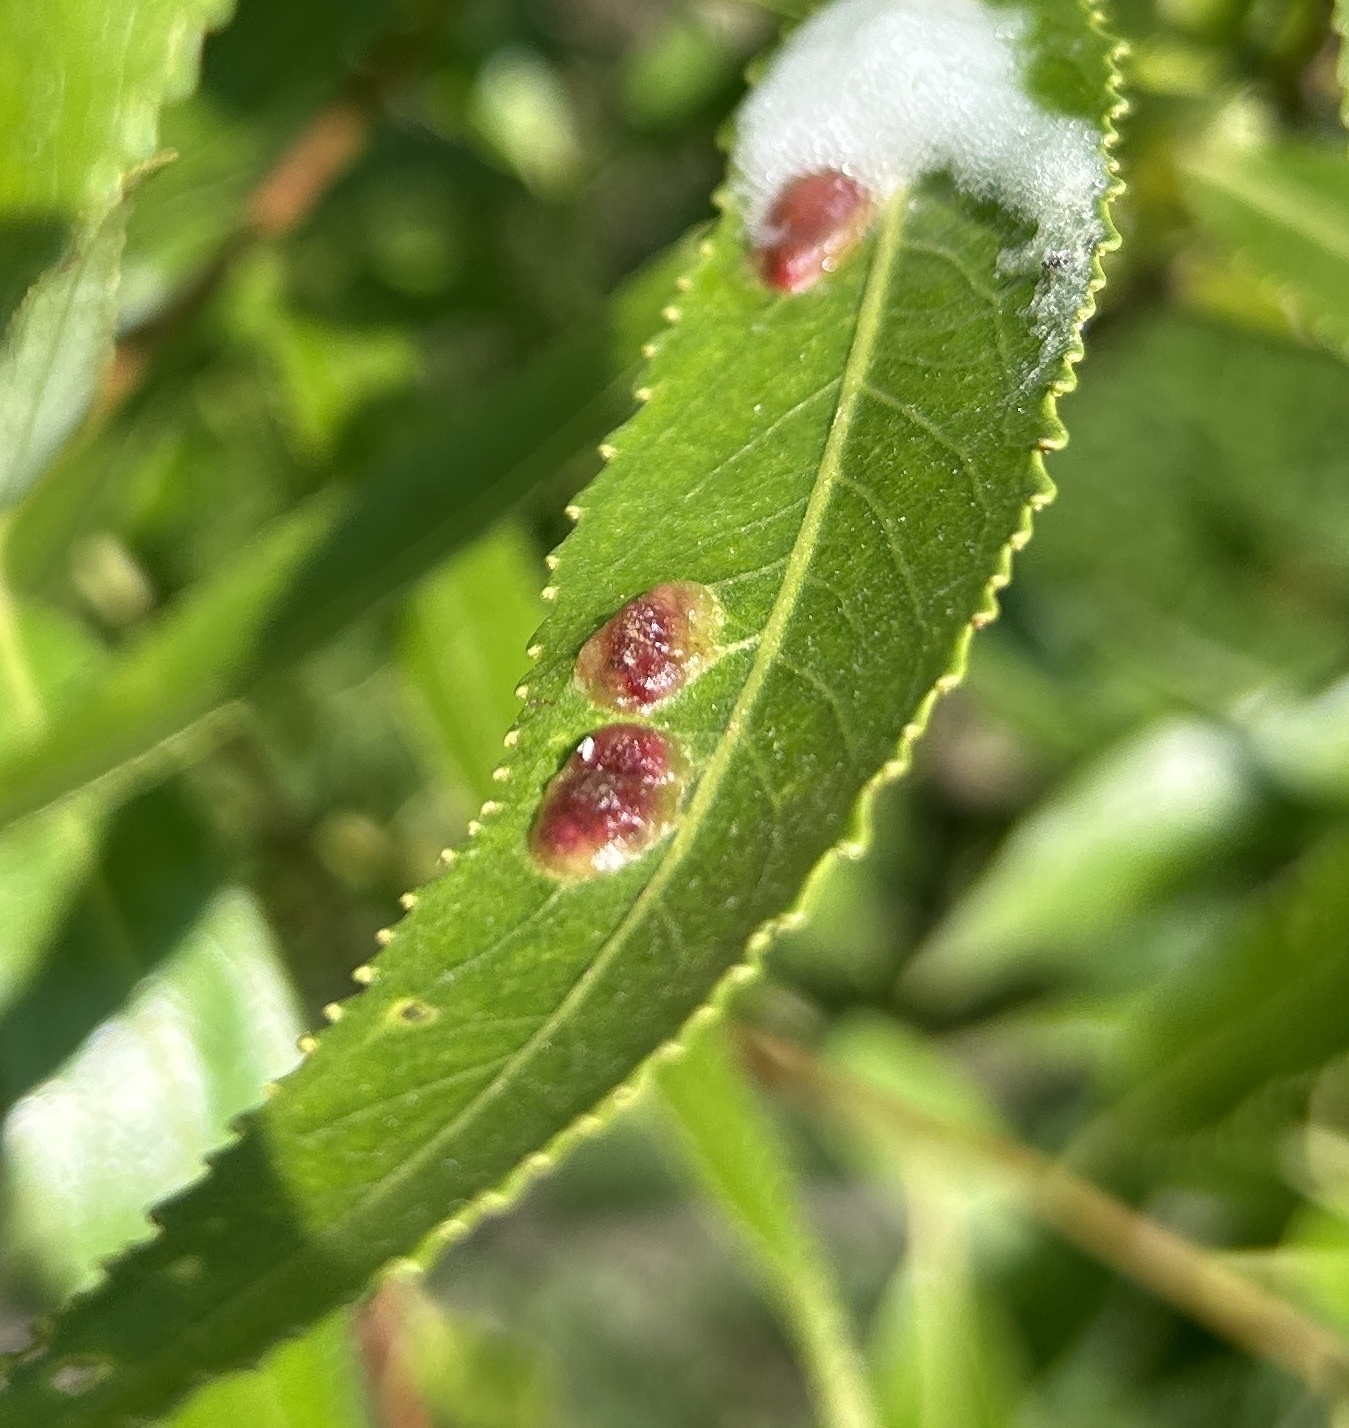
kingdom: Animalia
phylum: Arthropoda
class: Insecta
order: Hymenoptera
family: Tenthredinidae
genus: Pontania
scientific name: Pontania proxima
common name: Common sawfly
